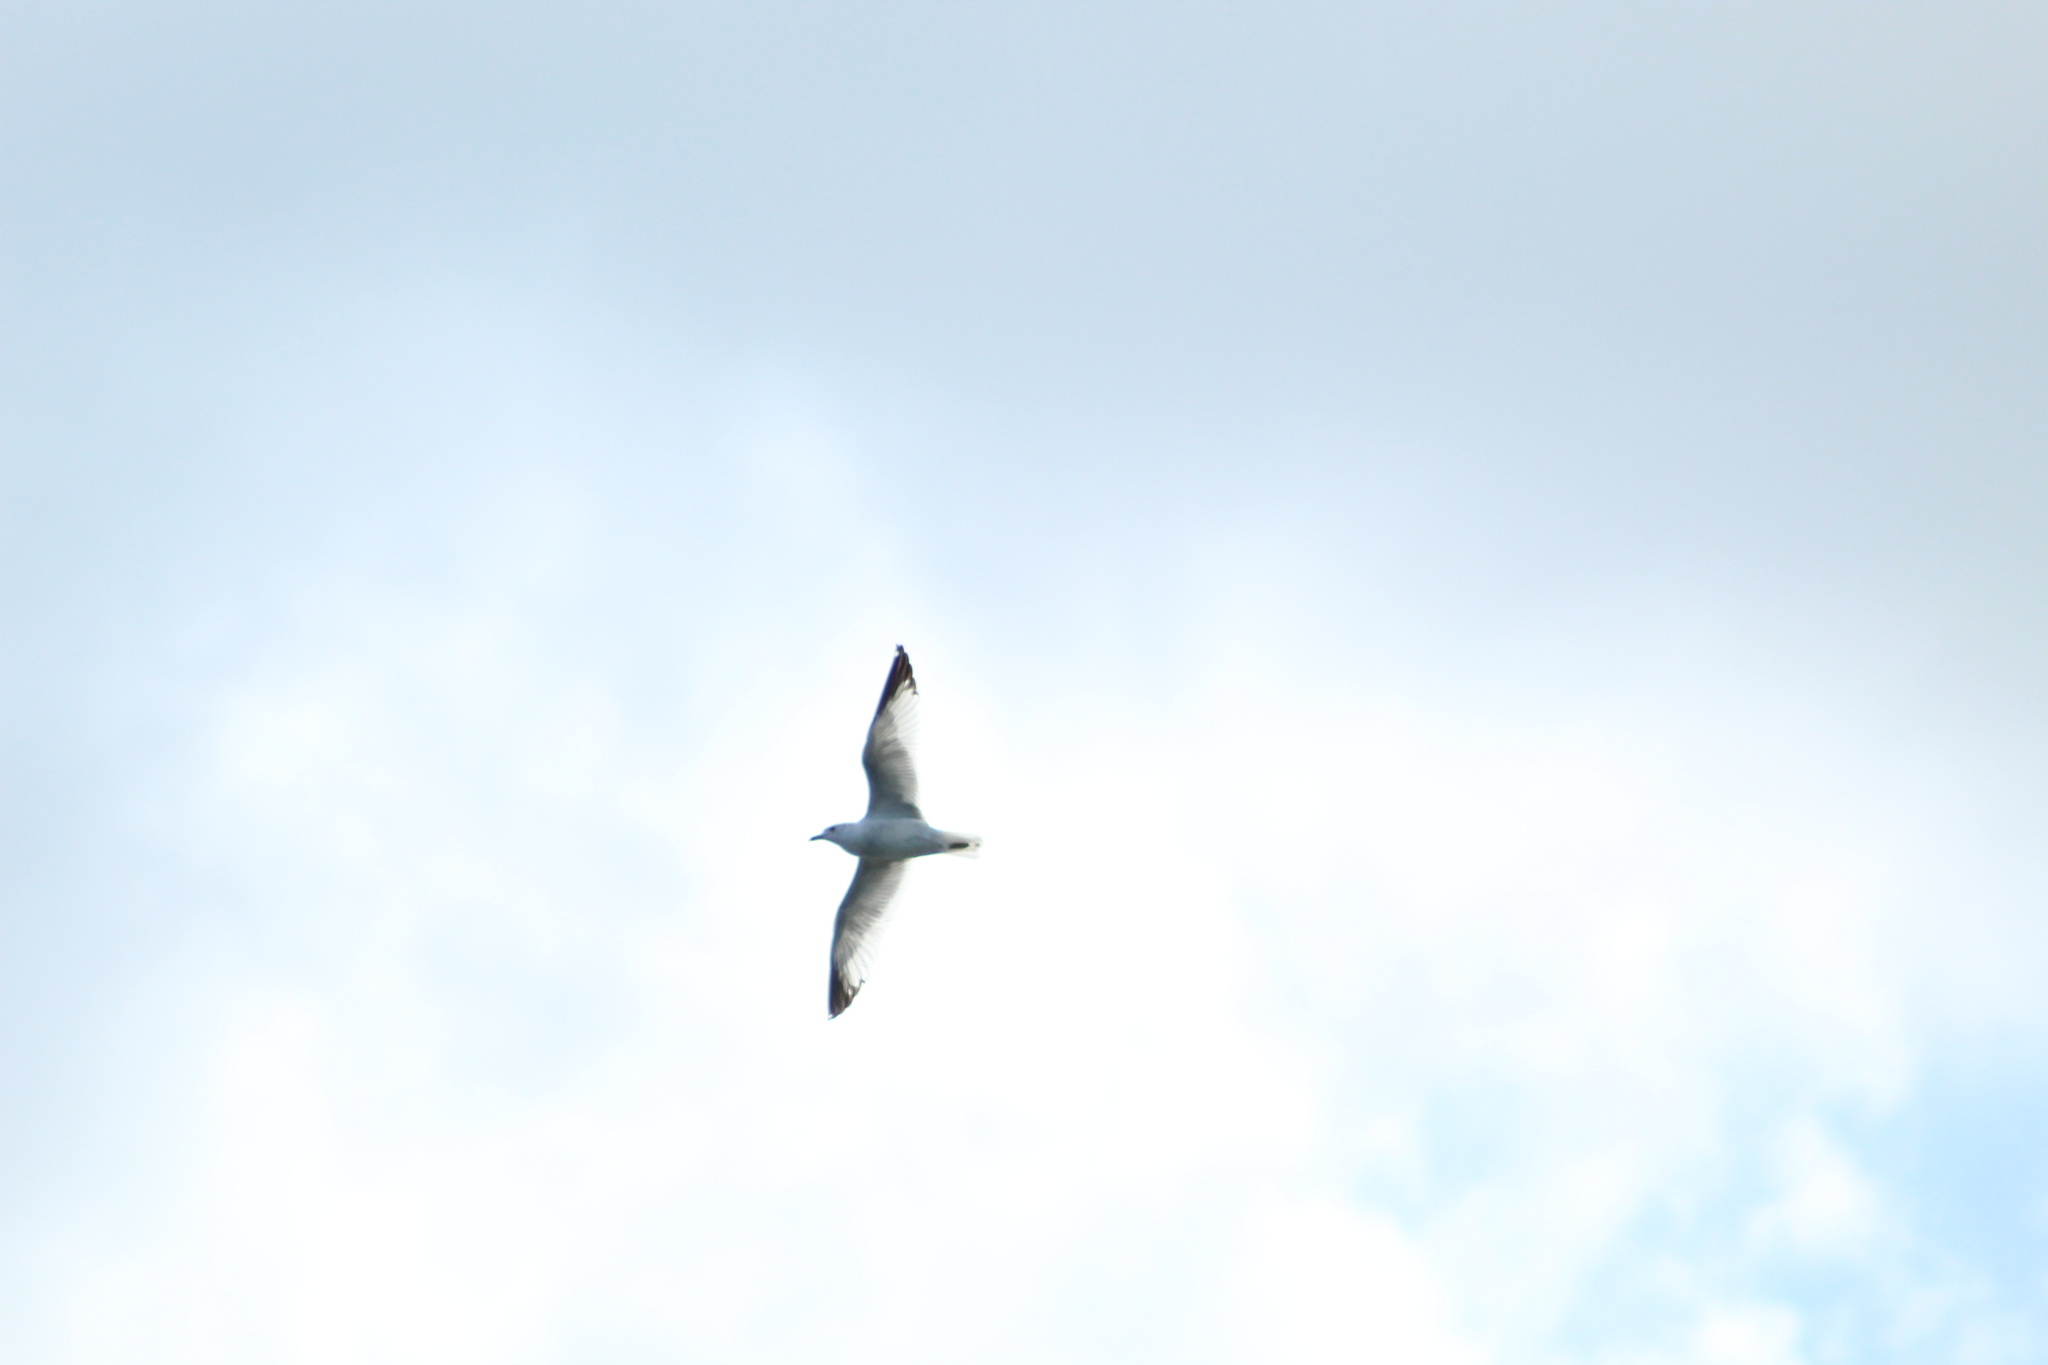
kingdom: Animalia
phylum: Chordata
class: Aves
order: Charadriiformes
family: Laridae
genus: Larus
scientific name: Larus delawarensis
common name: Ring-billed gull
